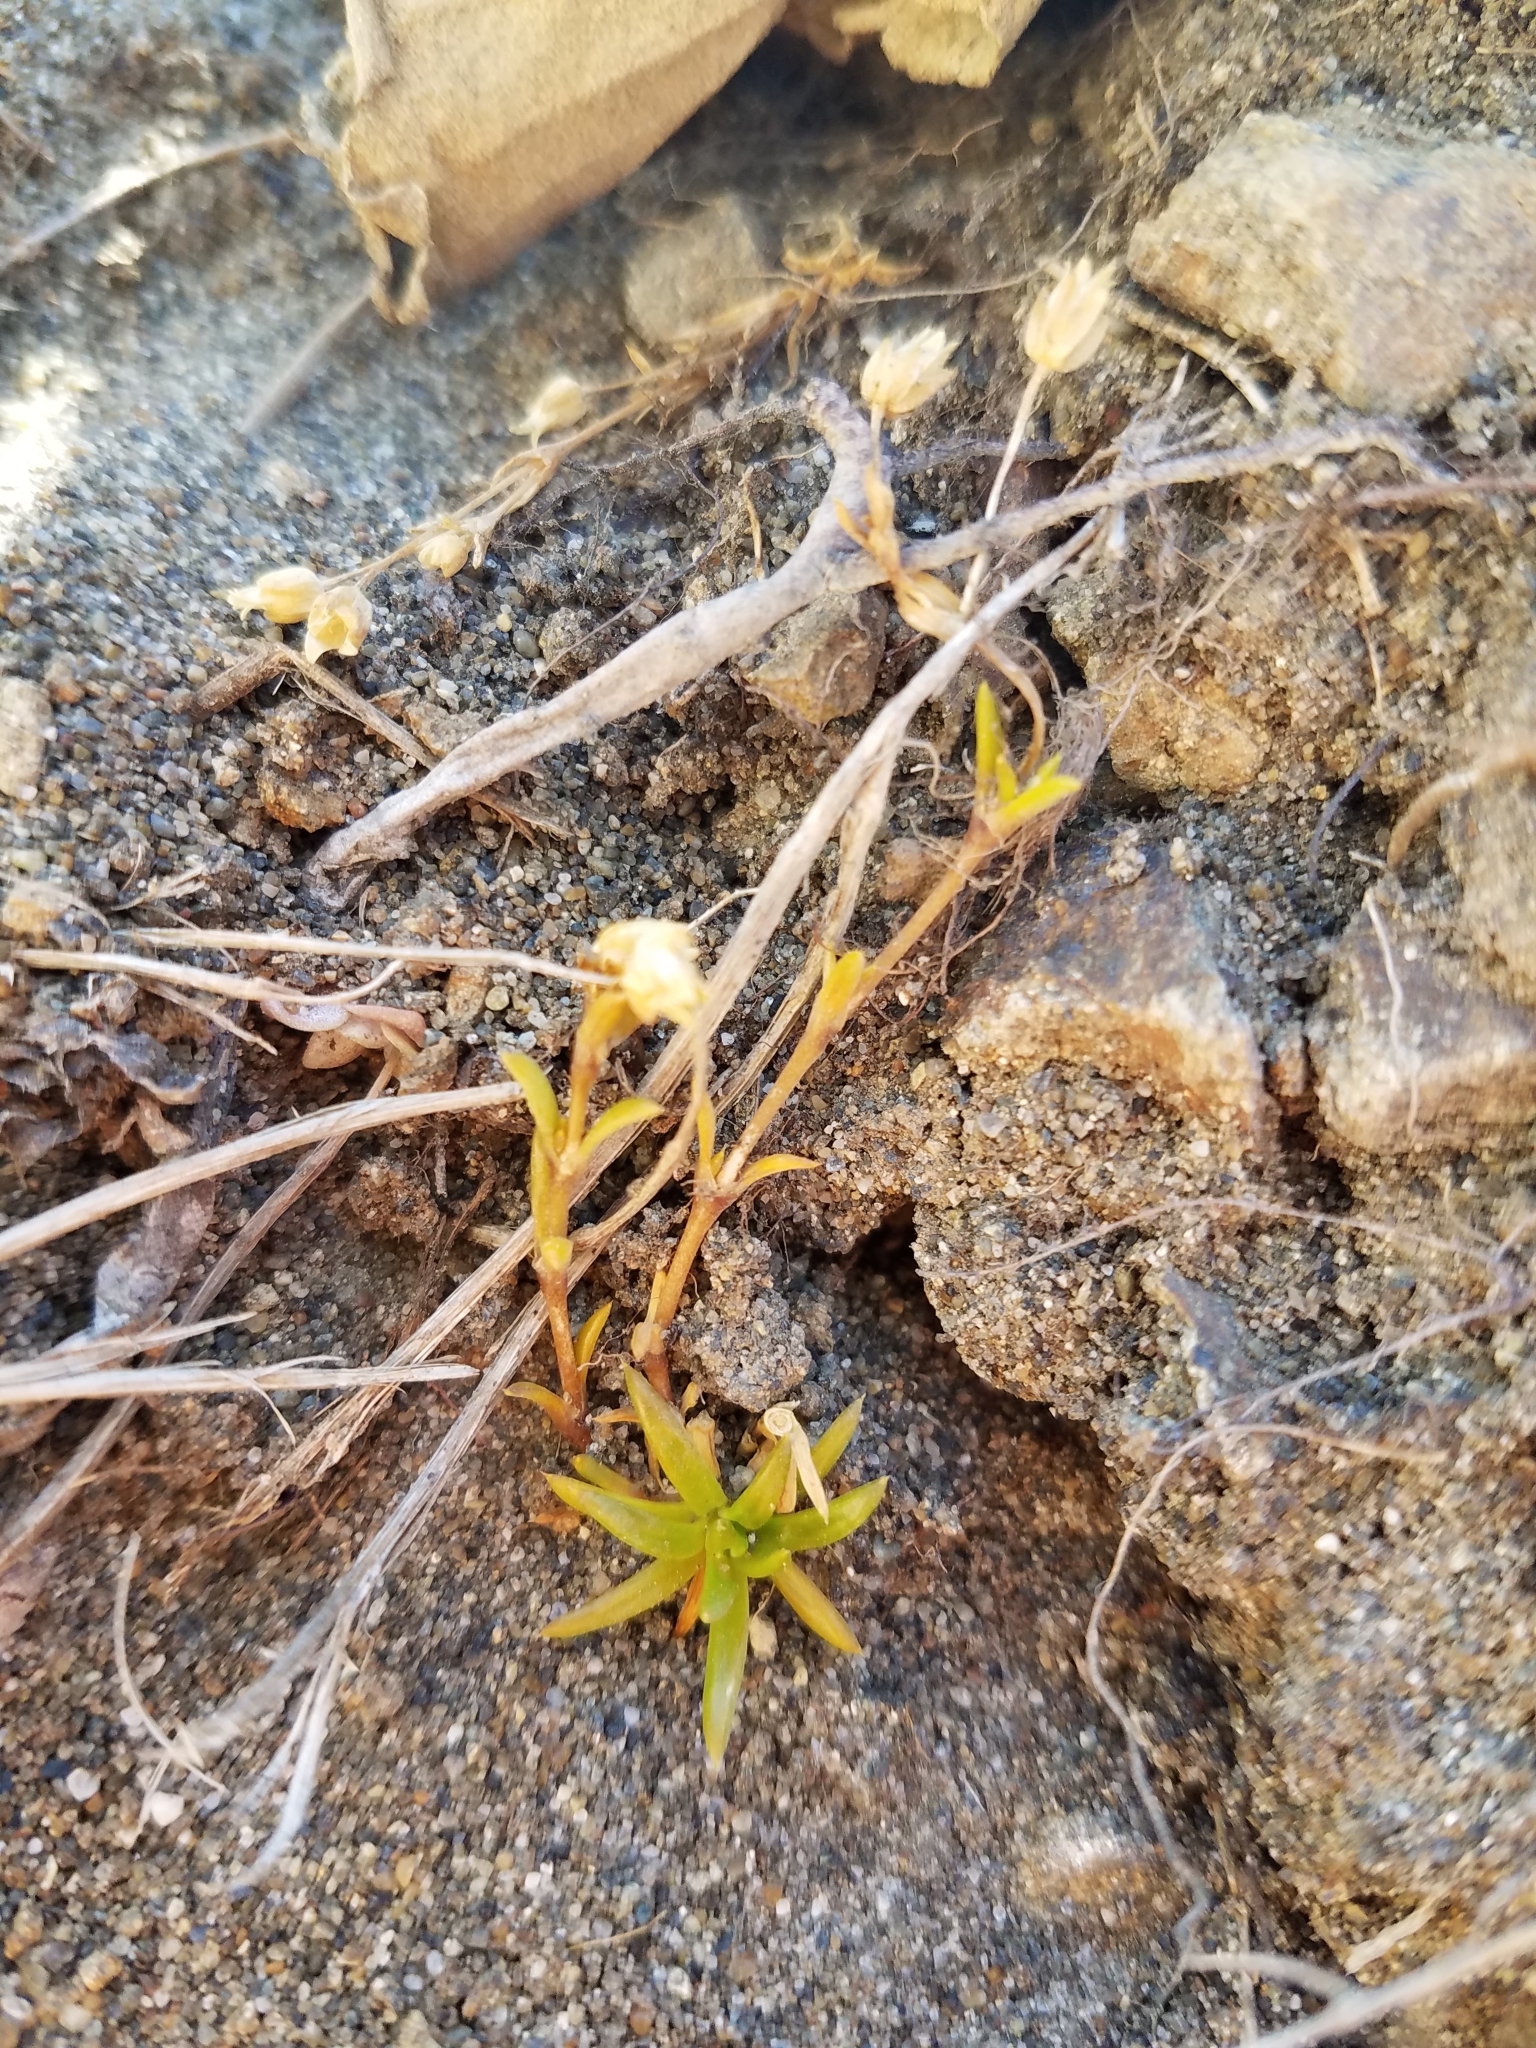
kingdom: Plantae
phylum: Tracheophyta
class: Magnoliopsida
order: Caryophyllales
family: Caryophyllaceae
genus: Sagina
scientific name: Sagina maxima
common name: Coastal pearlwort
